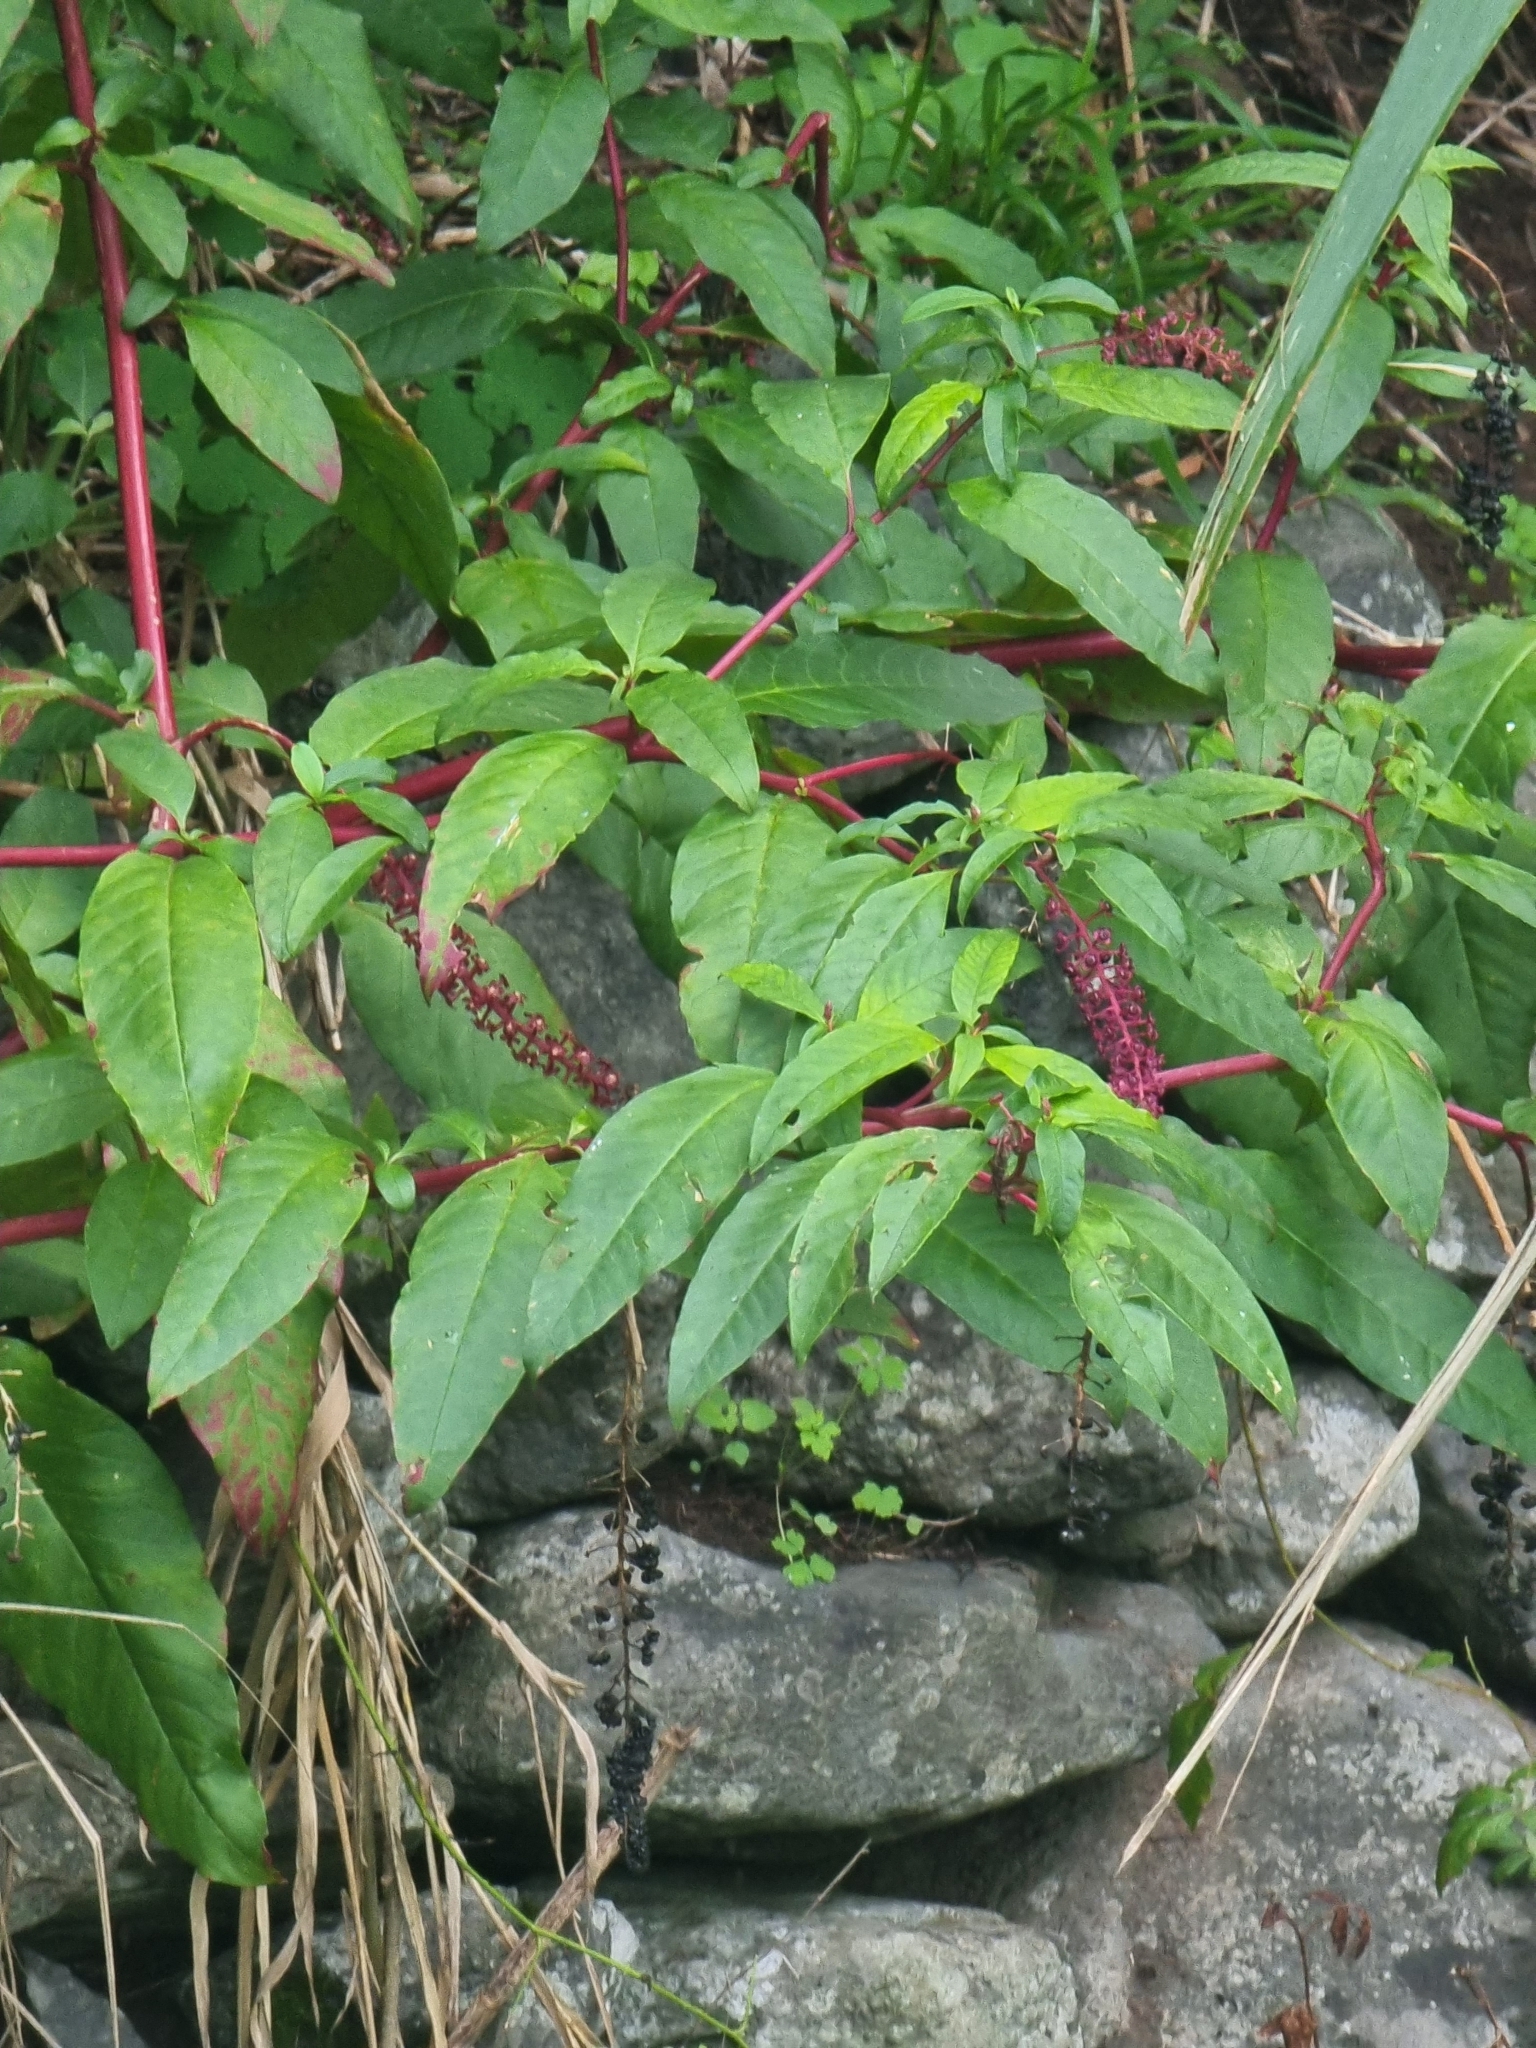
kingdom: Plantae
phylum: Tracheophyta
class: Magnoliopsida
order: Caryophyllales
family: Phytolaccaceae
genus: Phytolacca
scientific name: Phytolacca americana
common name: American pokeweed
